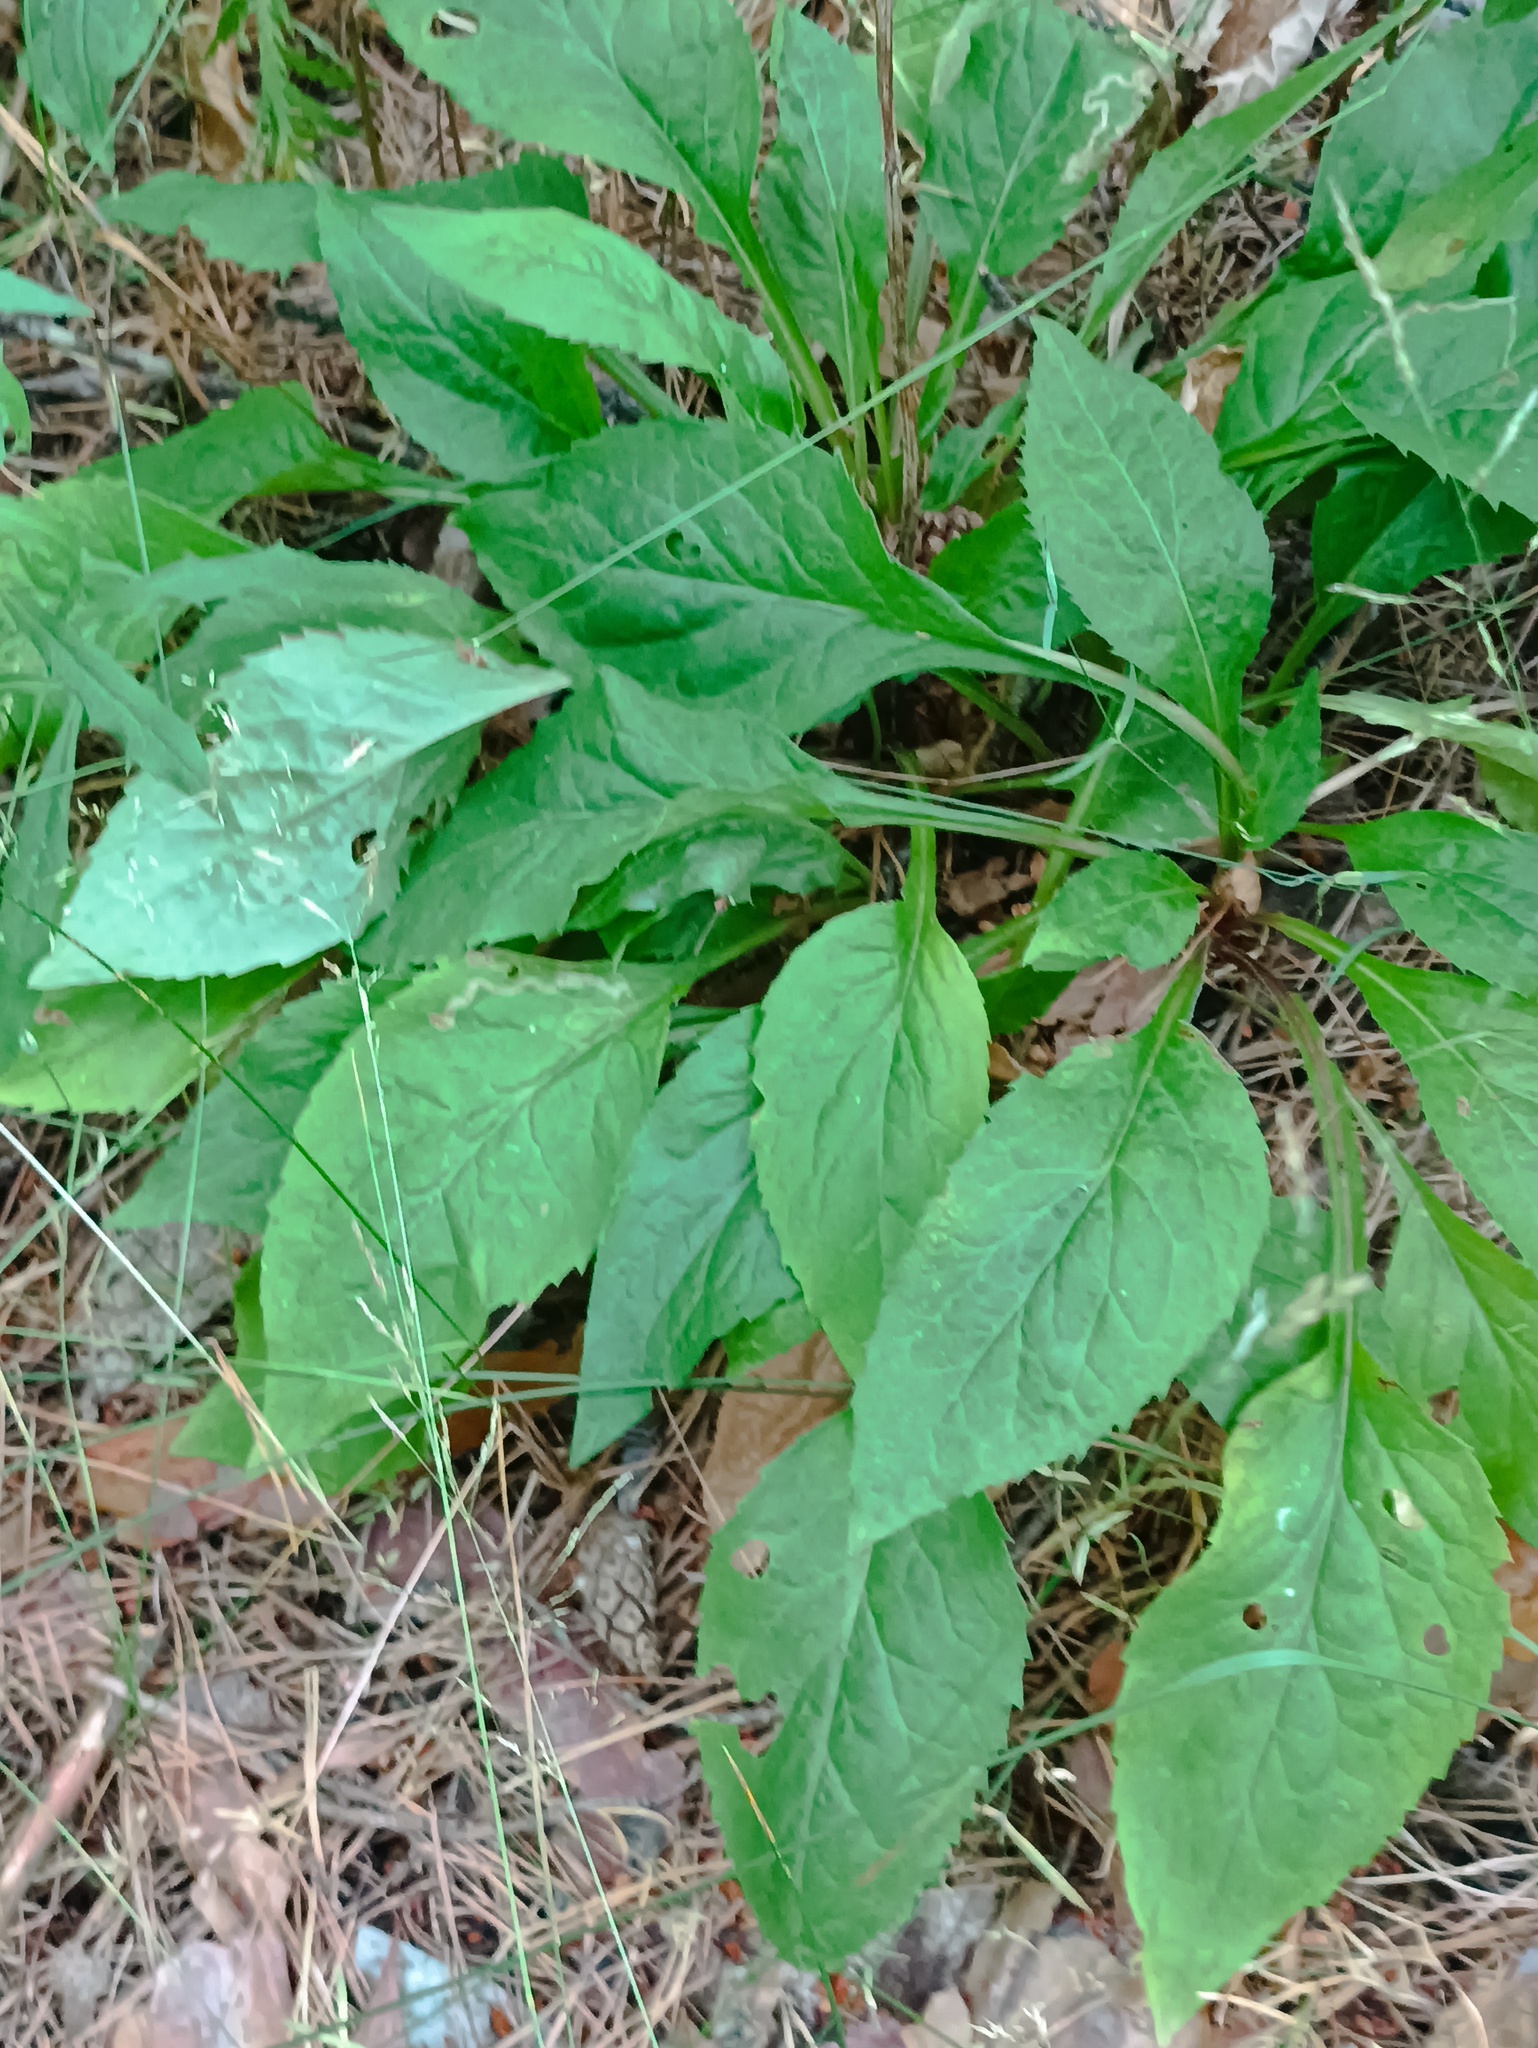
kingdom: Plantae
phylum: Tracheophyta
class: Magnoliopsida
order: Asterales
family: Asteraceae
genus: Solidago
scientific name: Solidago virgaurea
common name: Goldenrod
